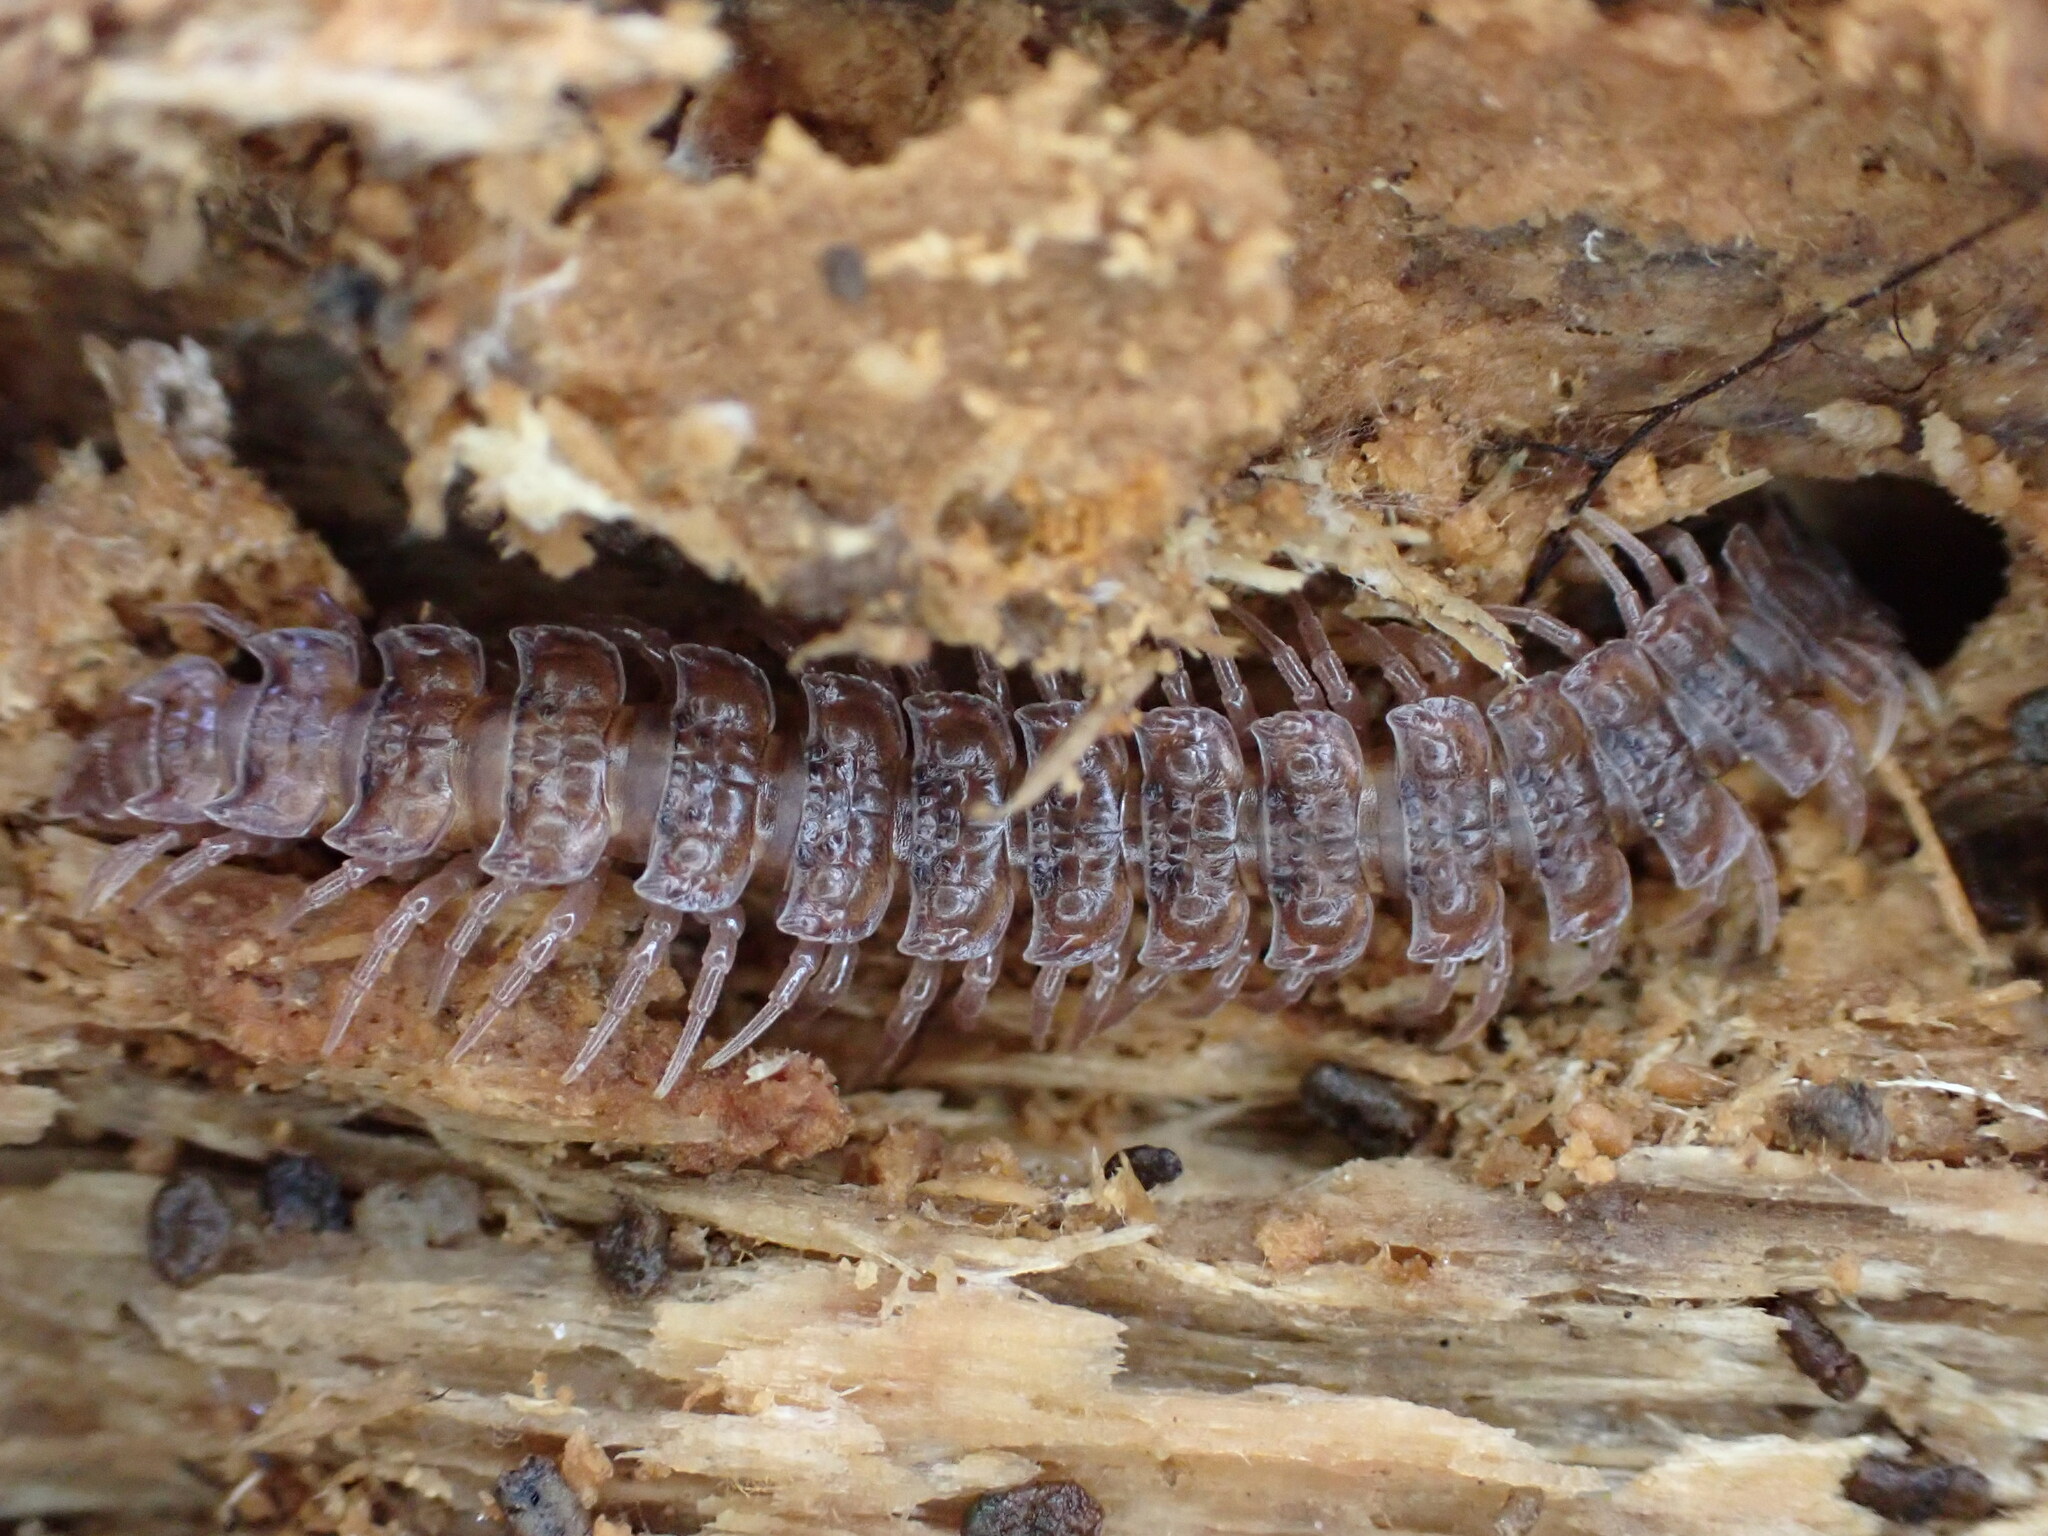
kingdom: Animalia
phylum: Arthropoda
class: Diplopoda
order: Polydesmida
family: Polydesmidae
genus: Polydesmus
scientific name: Polydesmus angustus
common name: Flat millipede
